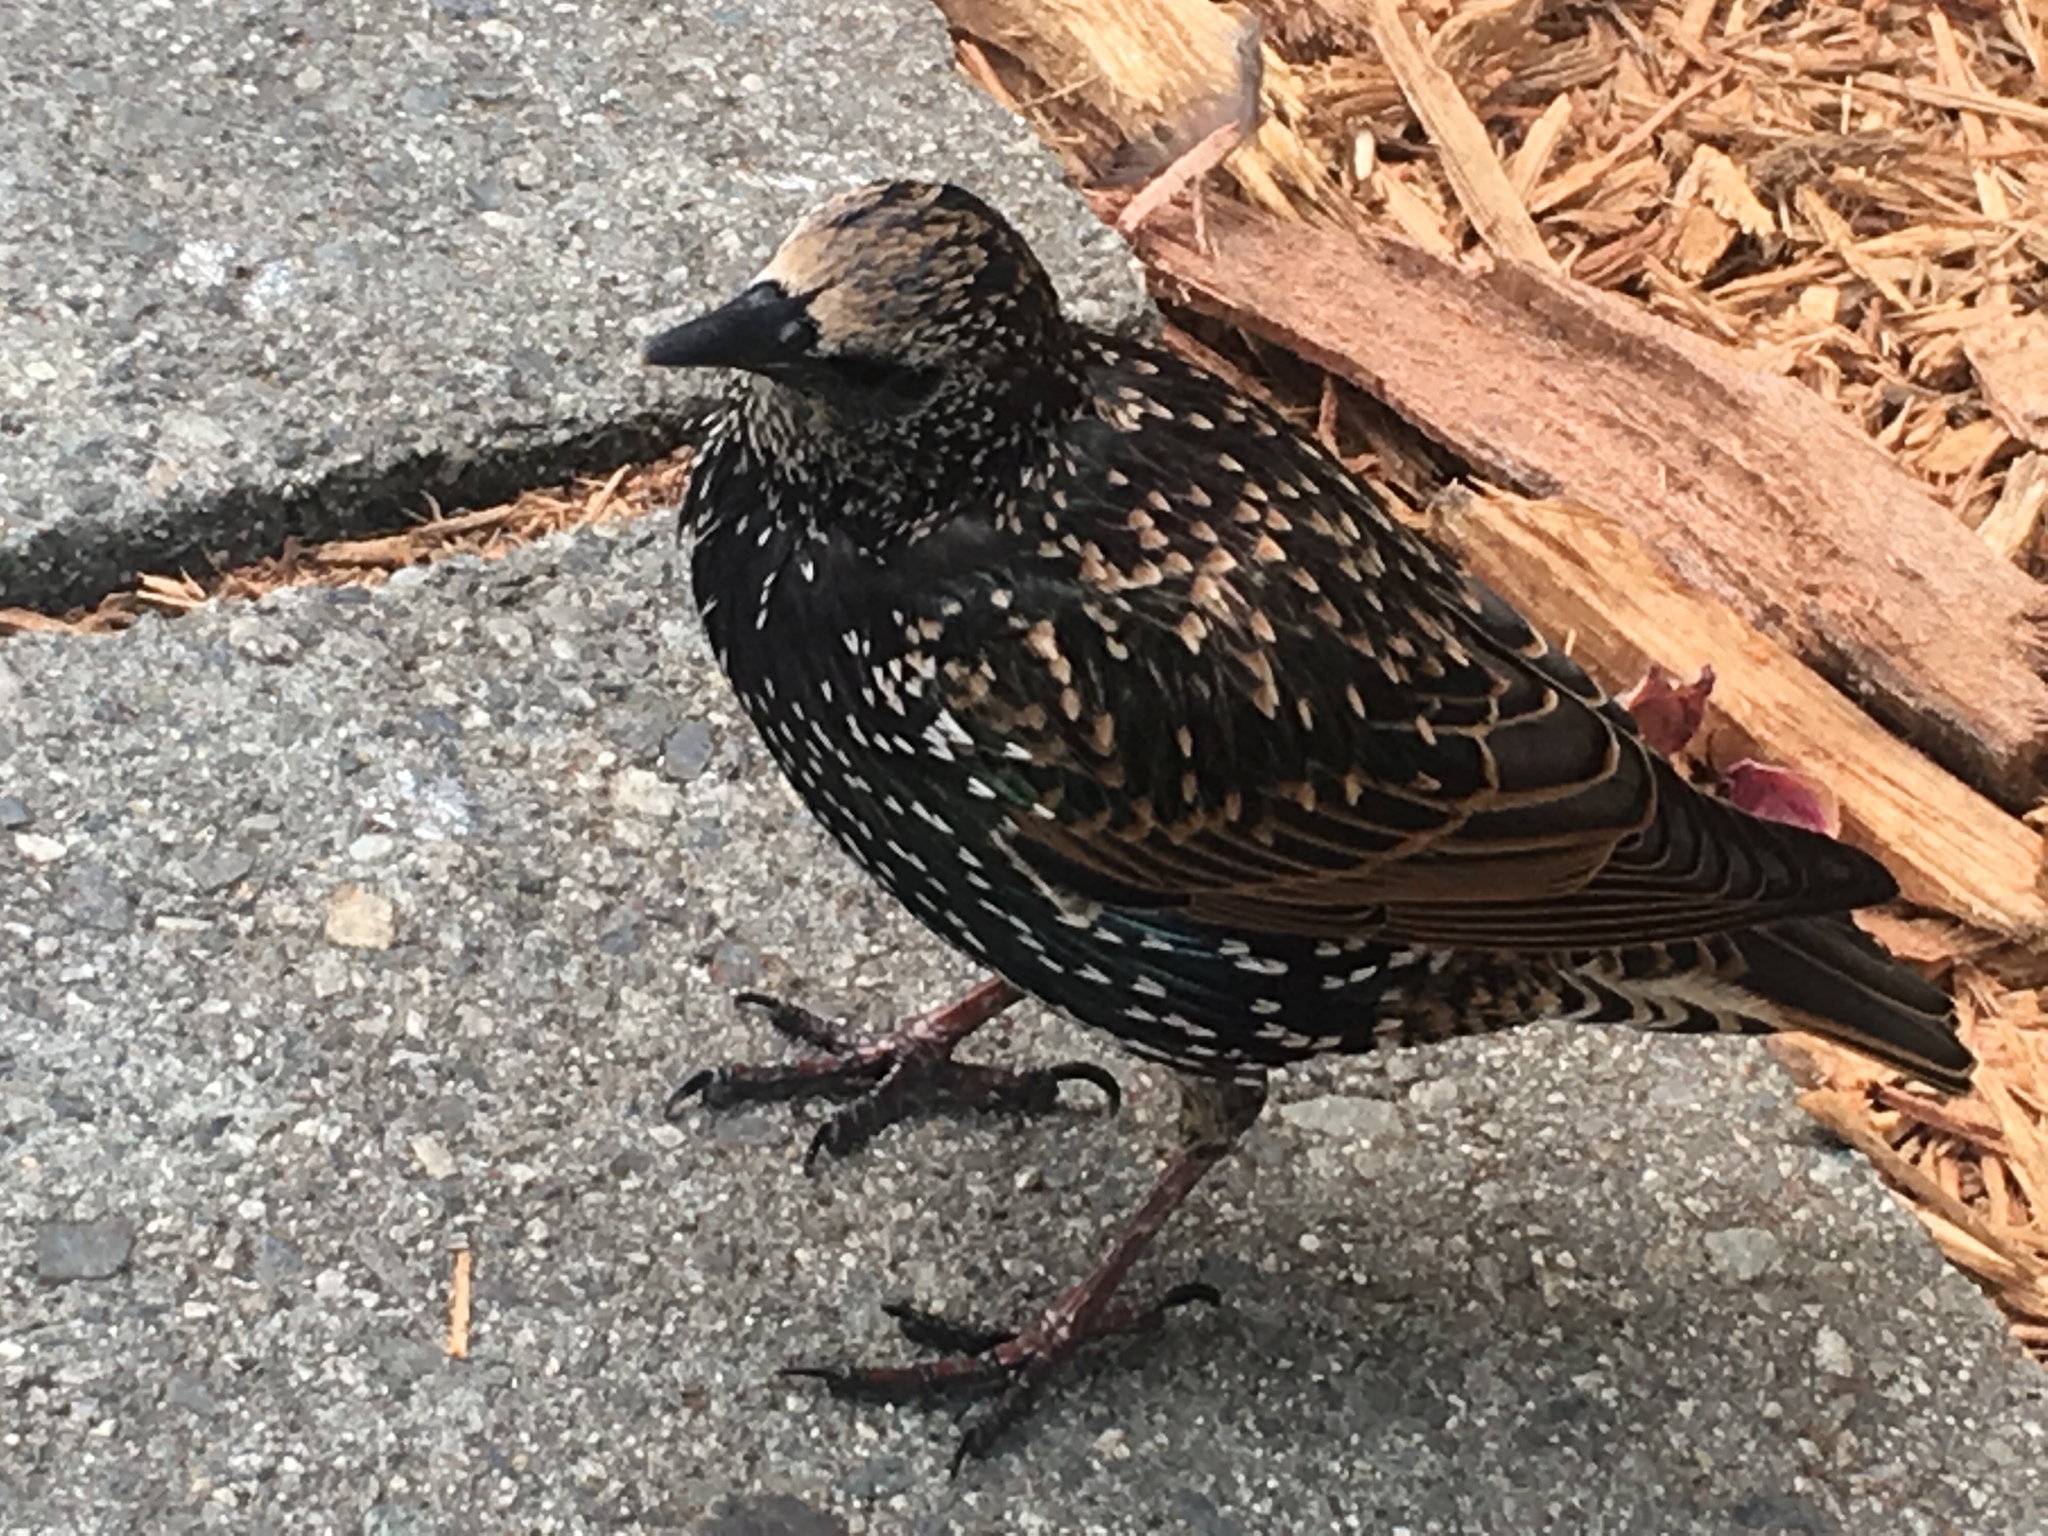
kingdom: Animalia
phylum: Chordata
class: Aves
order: Passeriformes
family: Sturnidae
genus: Sturnus
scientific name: Sturnus vulgaris
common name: Common starling
